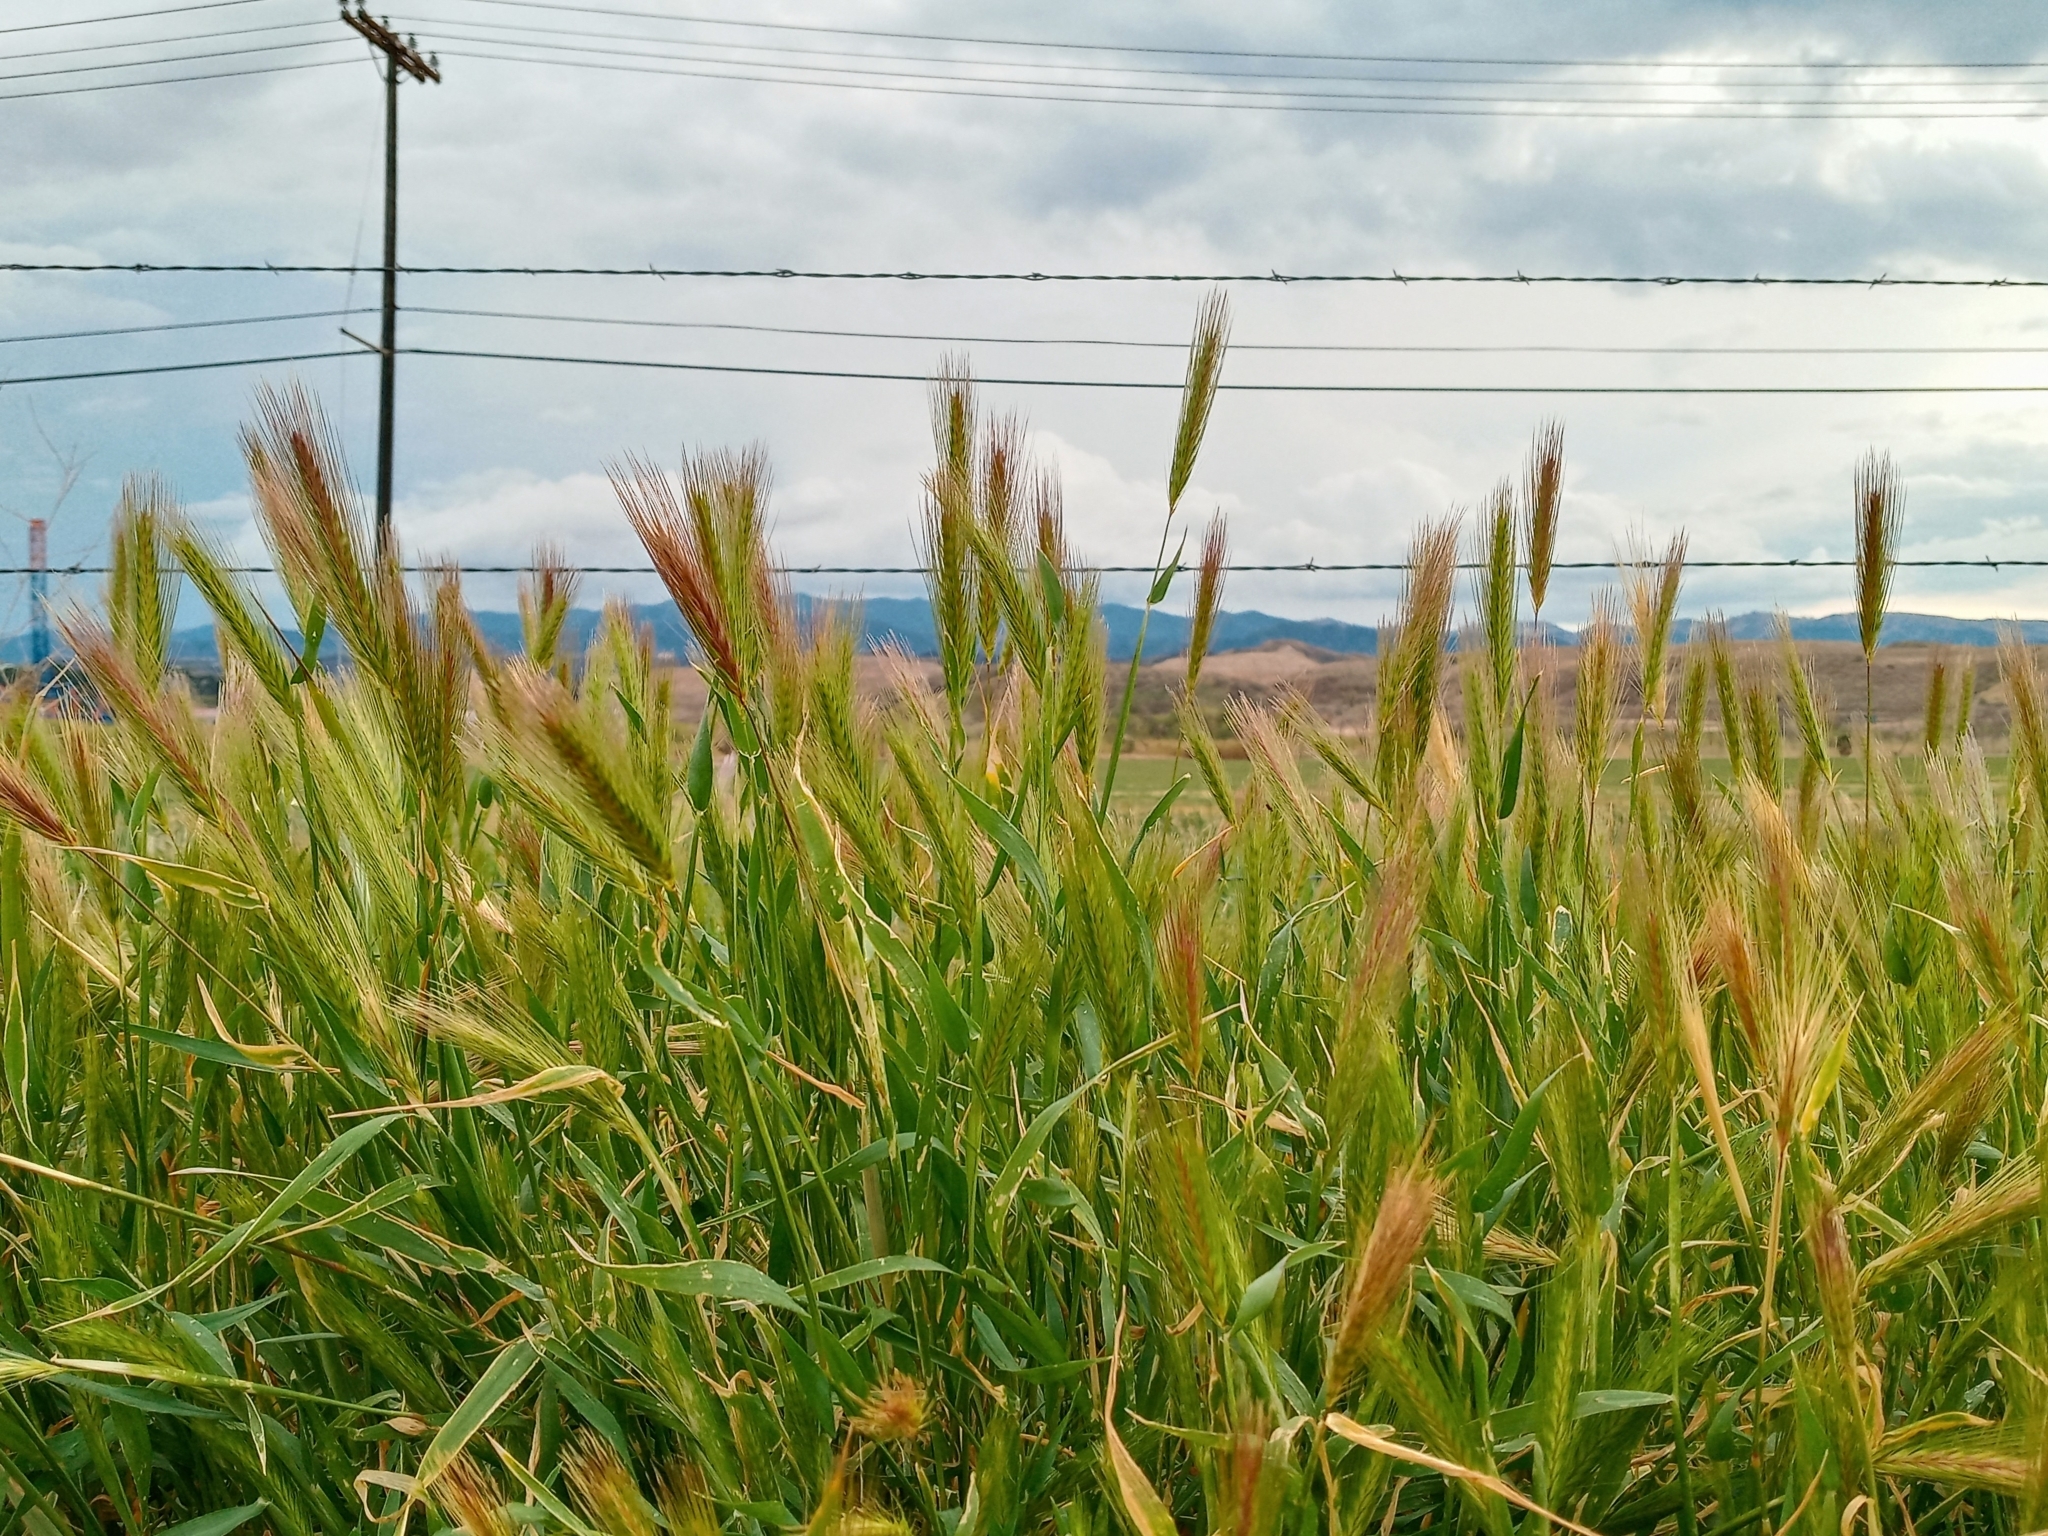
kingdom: Plantae
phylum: Tracheophyta
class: Liliopsida
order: Poales
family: Poaceae
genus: Hordeum
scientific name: Hordeum murinum
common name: Wall barley
